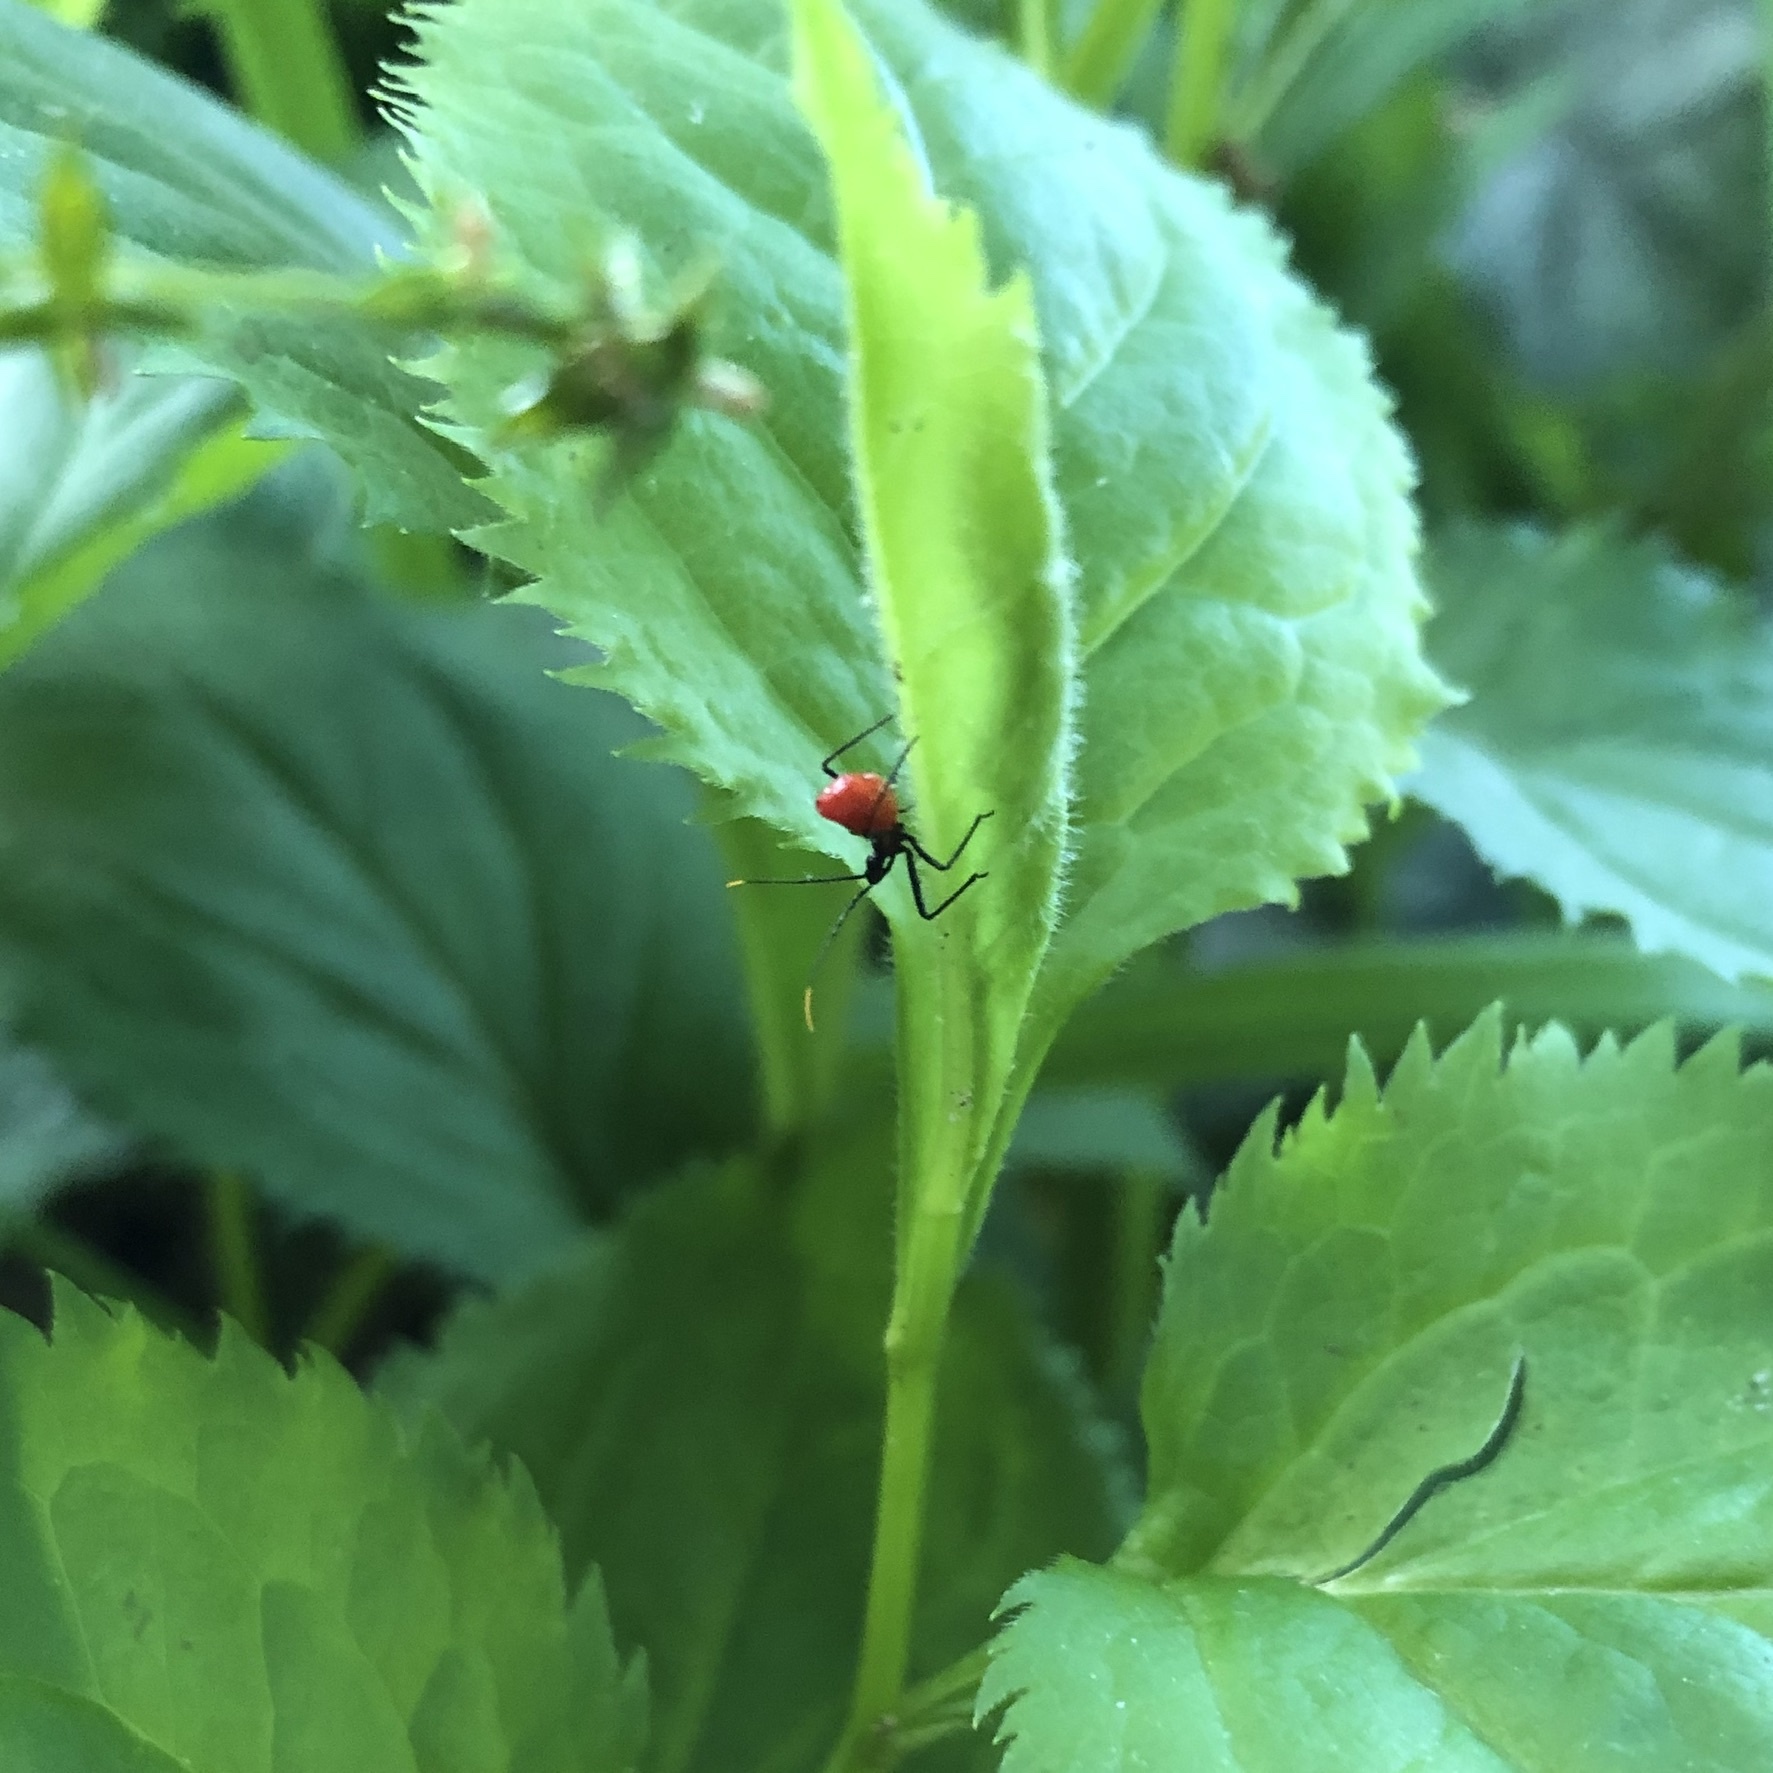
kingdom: Animalia
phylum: Arthropoda
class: Insecta
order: Hemiptera
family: Reduviidae
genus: Arilus
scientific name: Arilus cristatus
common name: North american wheel bug
